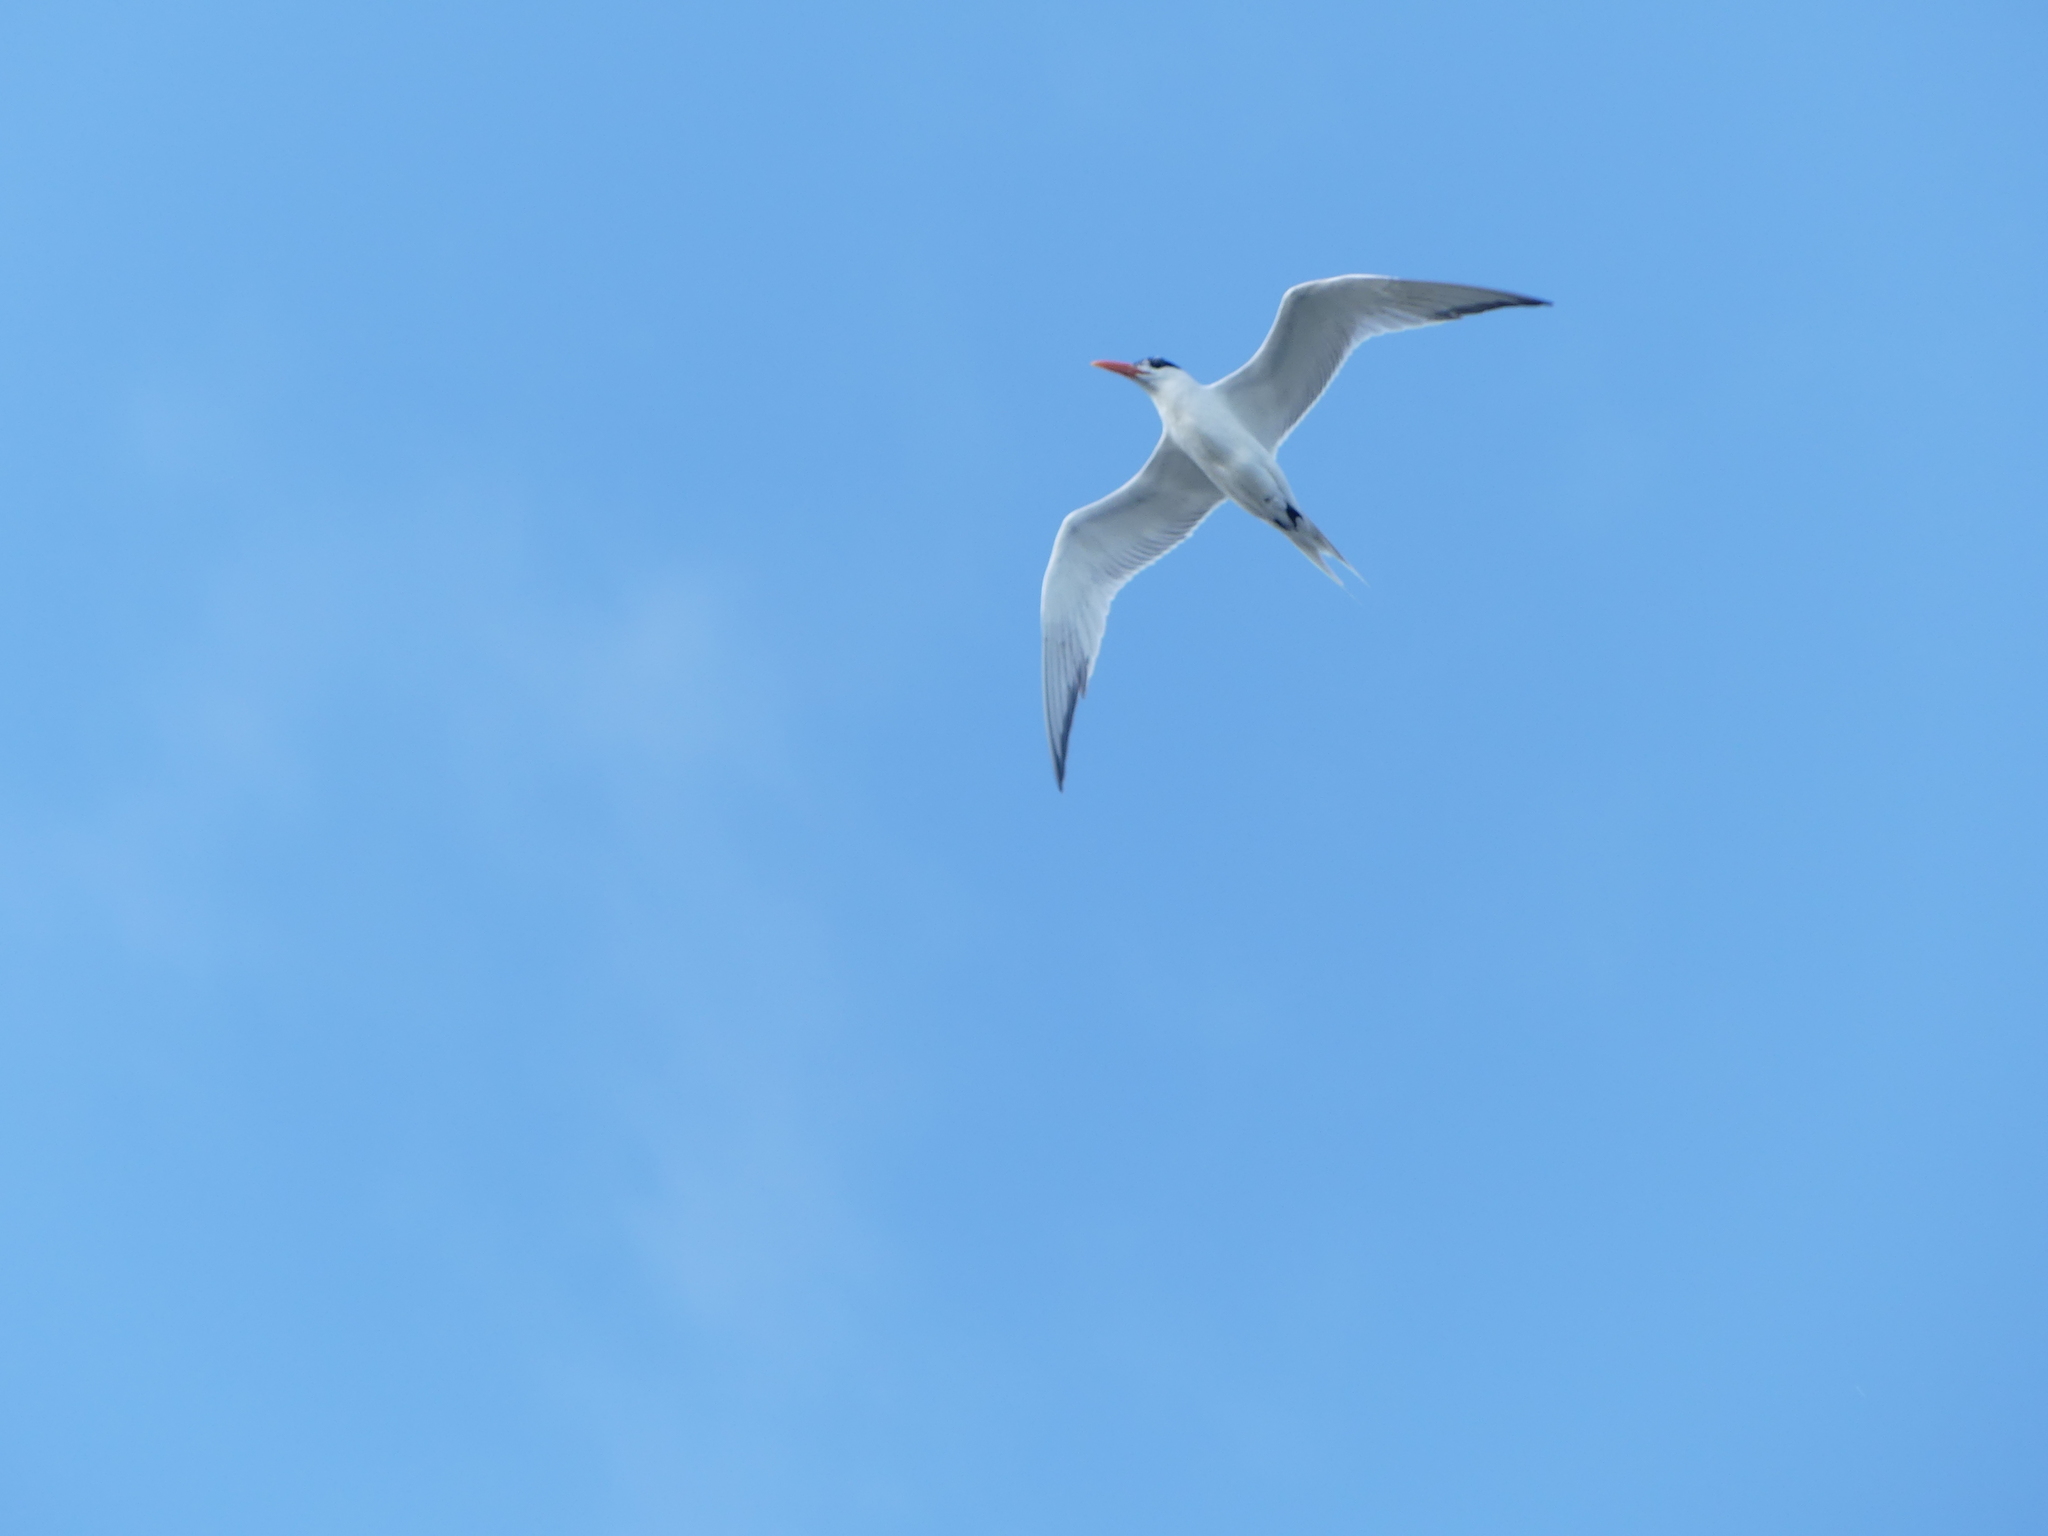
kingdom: Animalia
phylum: Chordata
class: Aves
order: Charadriiformes
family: Laridae
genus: Thalasseus
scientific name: Thalasseus maximus
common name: Royal tern
